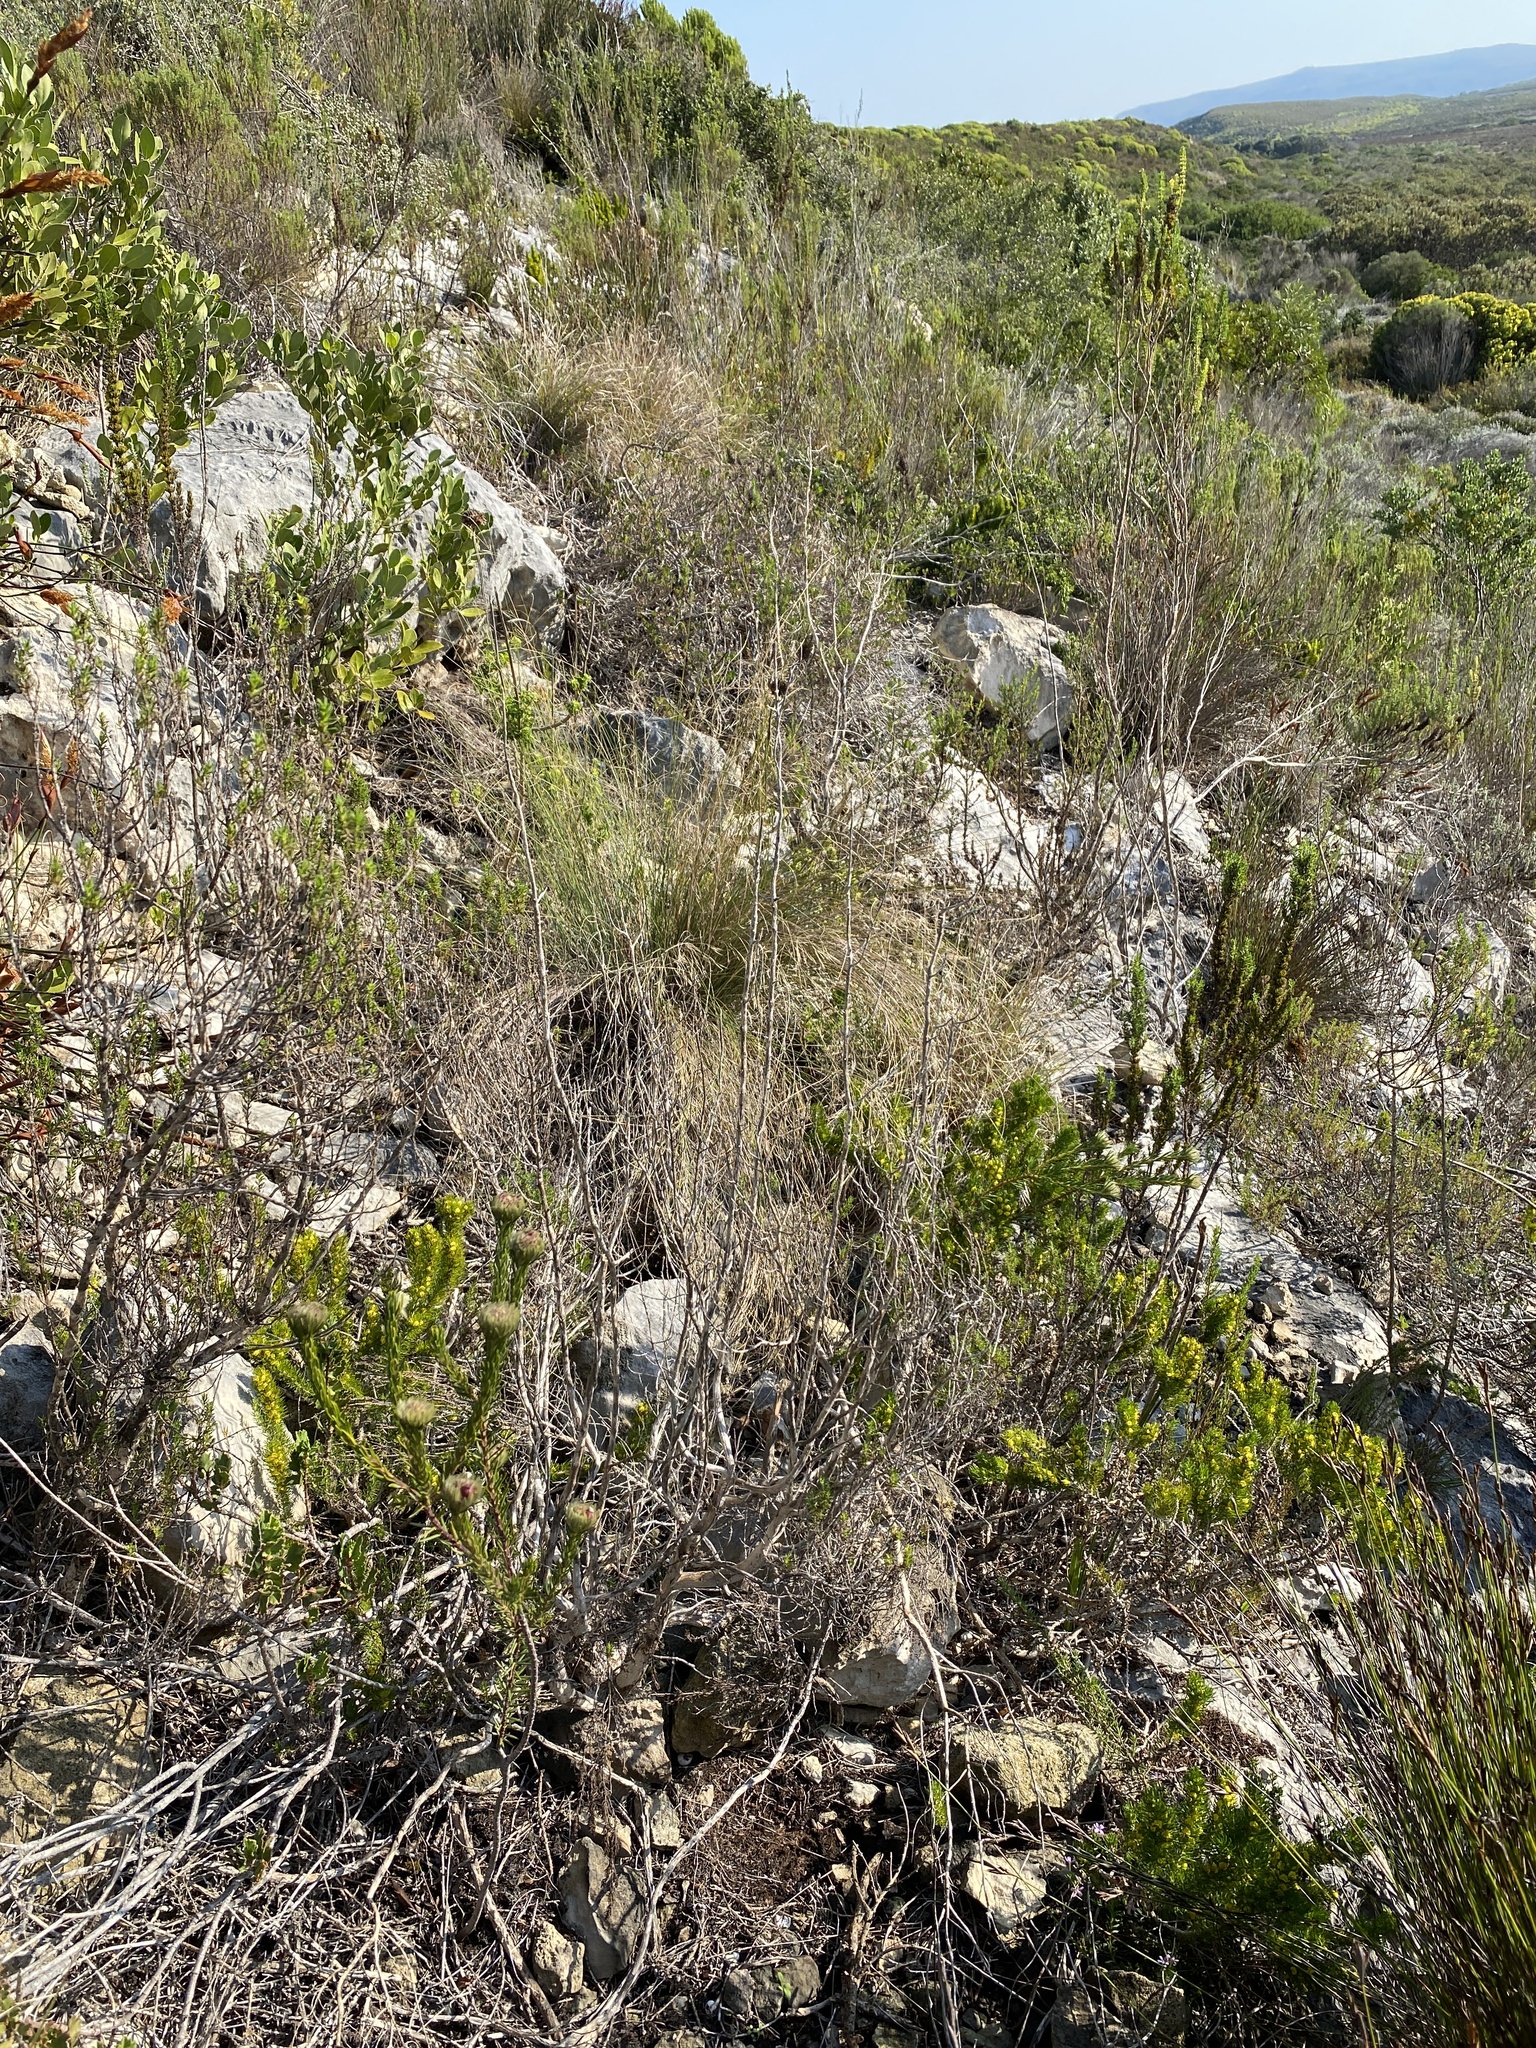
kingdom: Plantae
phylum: Tracheophyta
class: Magnoliopsida
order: Rosales
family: Rhamnaceae
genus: Phylica
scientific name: Phylica pubescens
